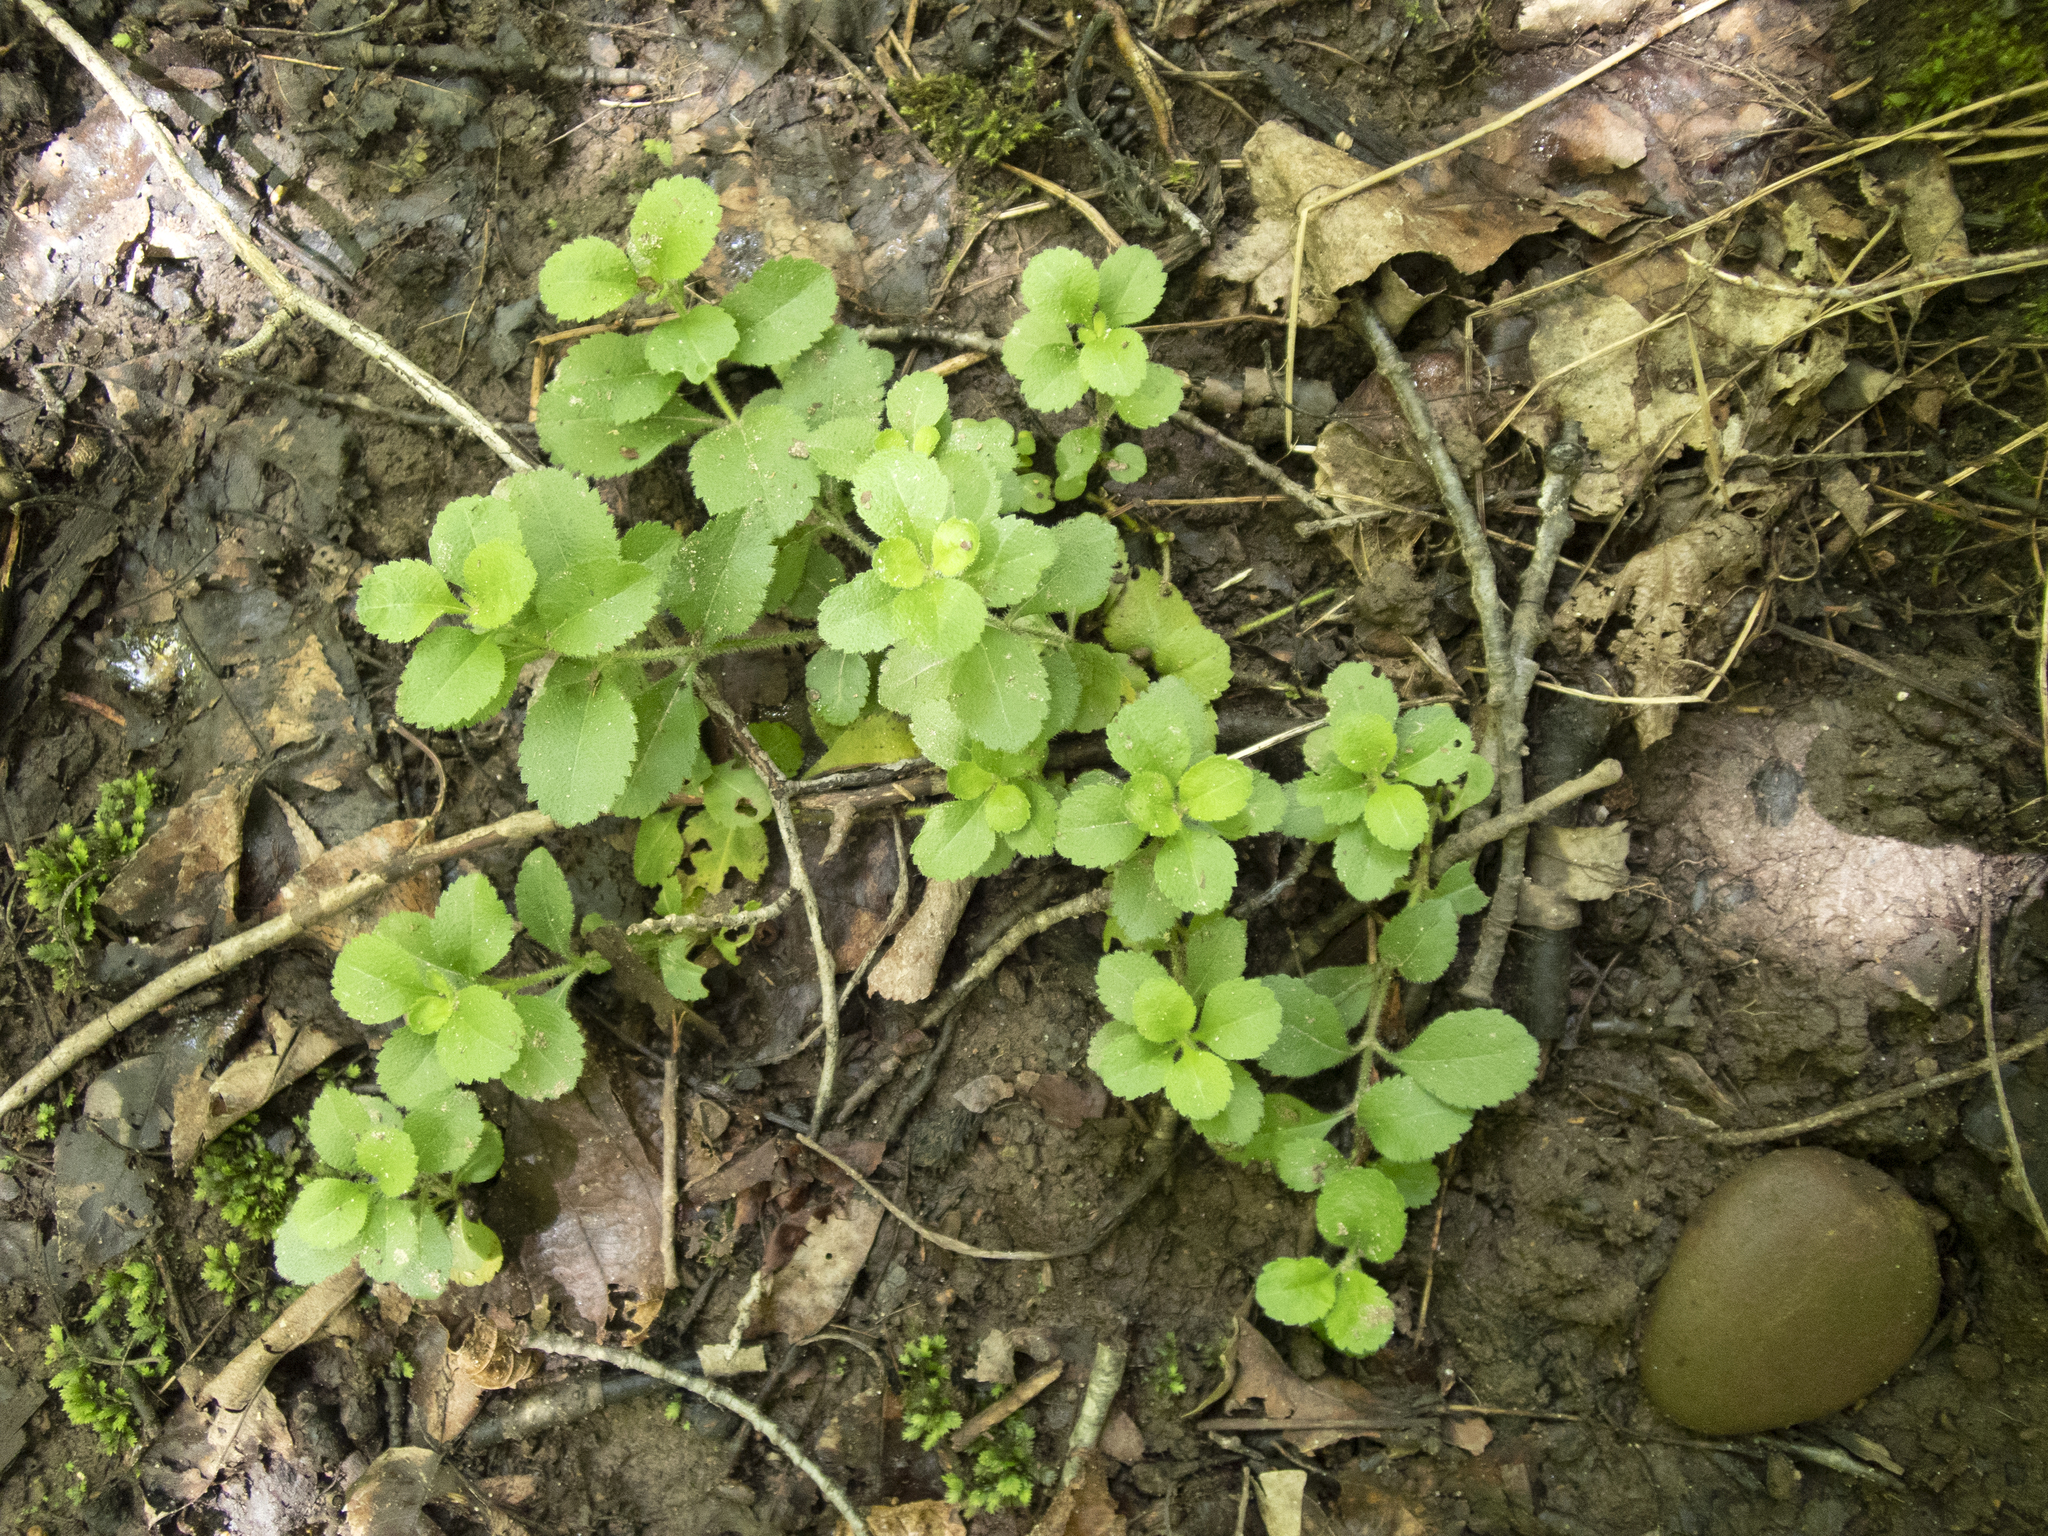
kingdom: Plantae
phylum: Tracheophyta
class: Magnoliopsida
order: Lamiales
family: Plantaginaceae
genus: Veronica
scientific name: Veronica officinalis
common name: Common speedwell
